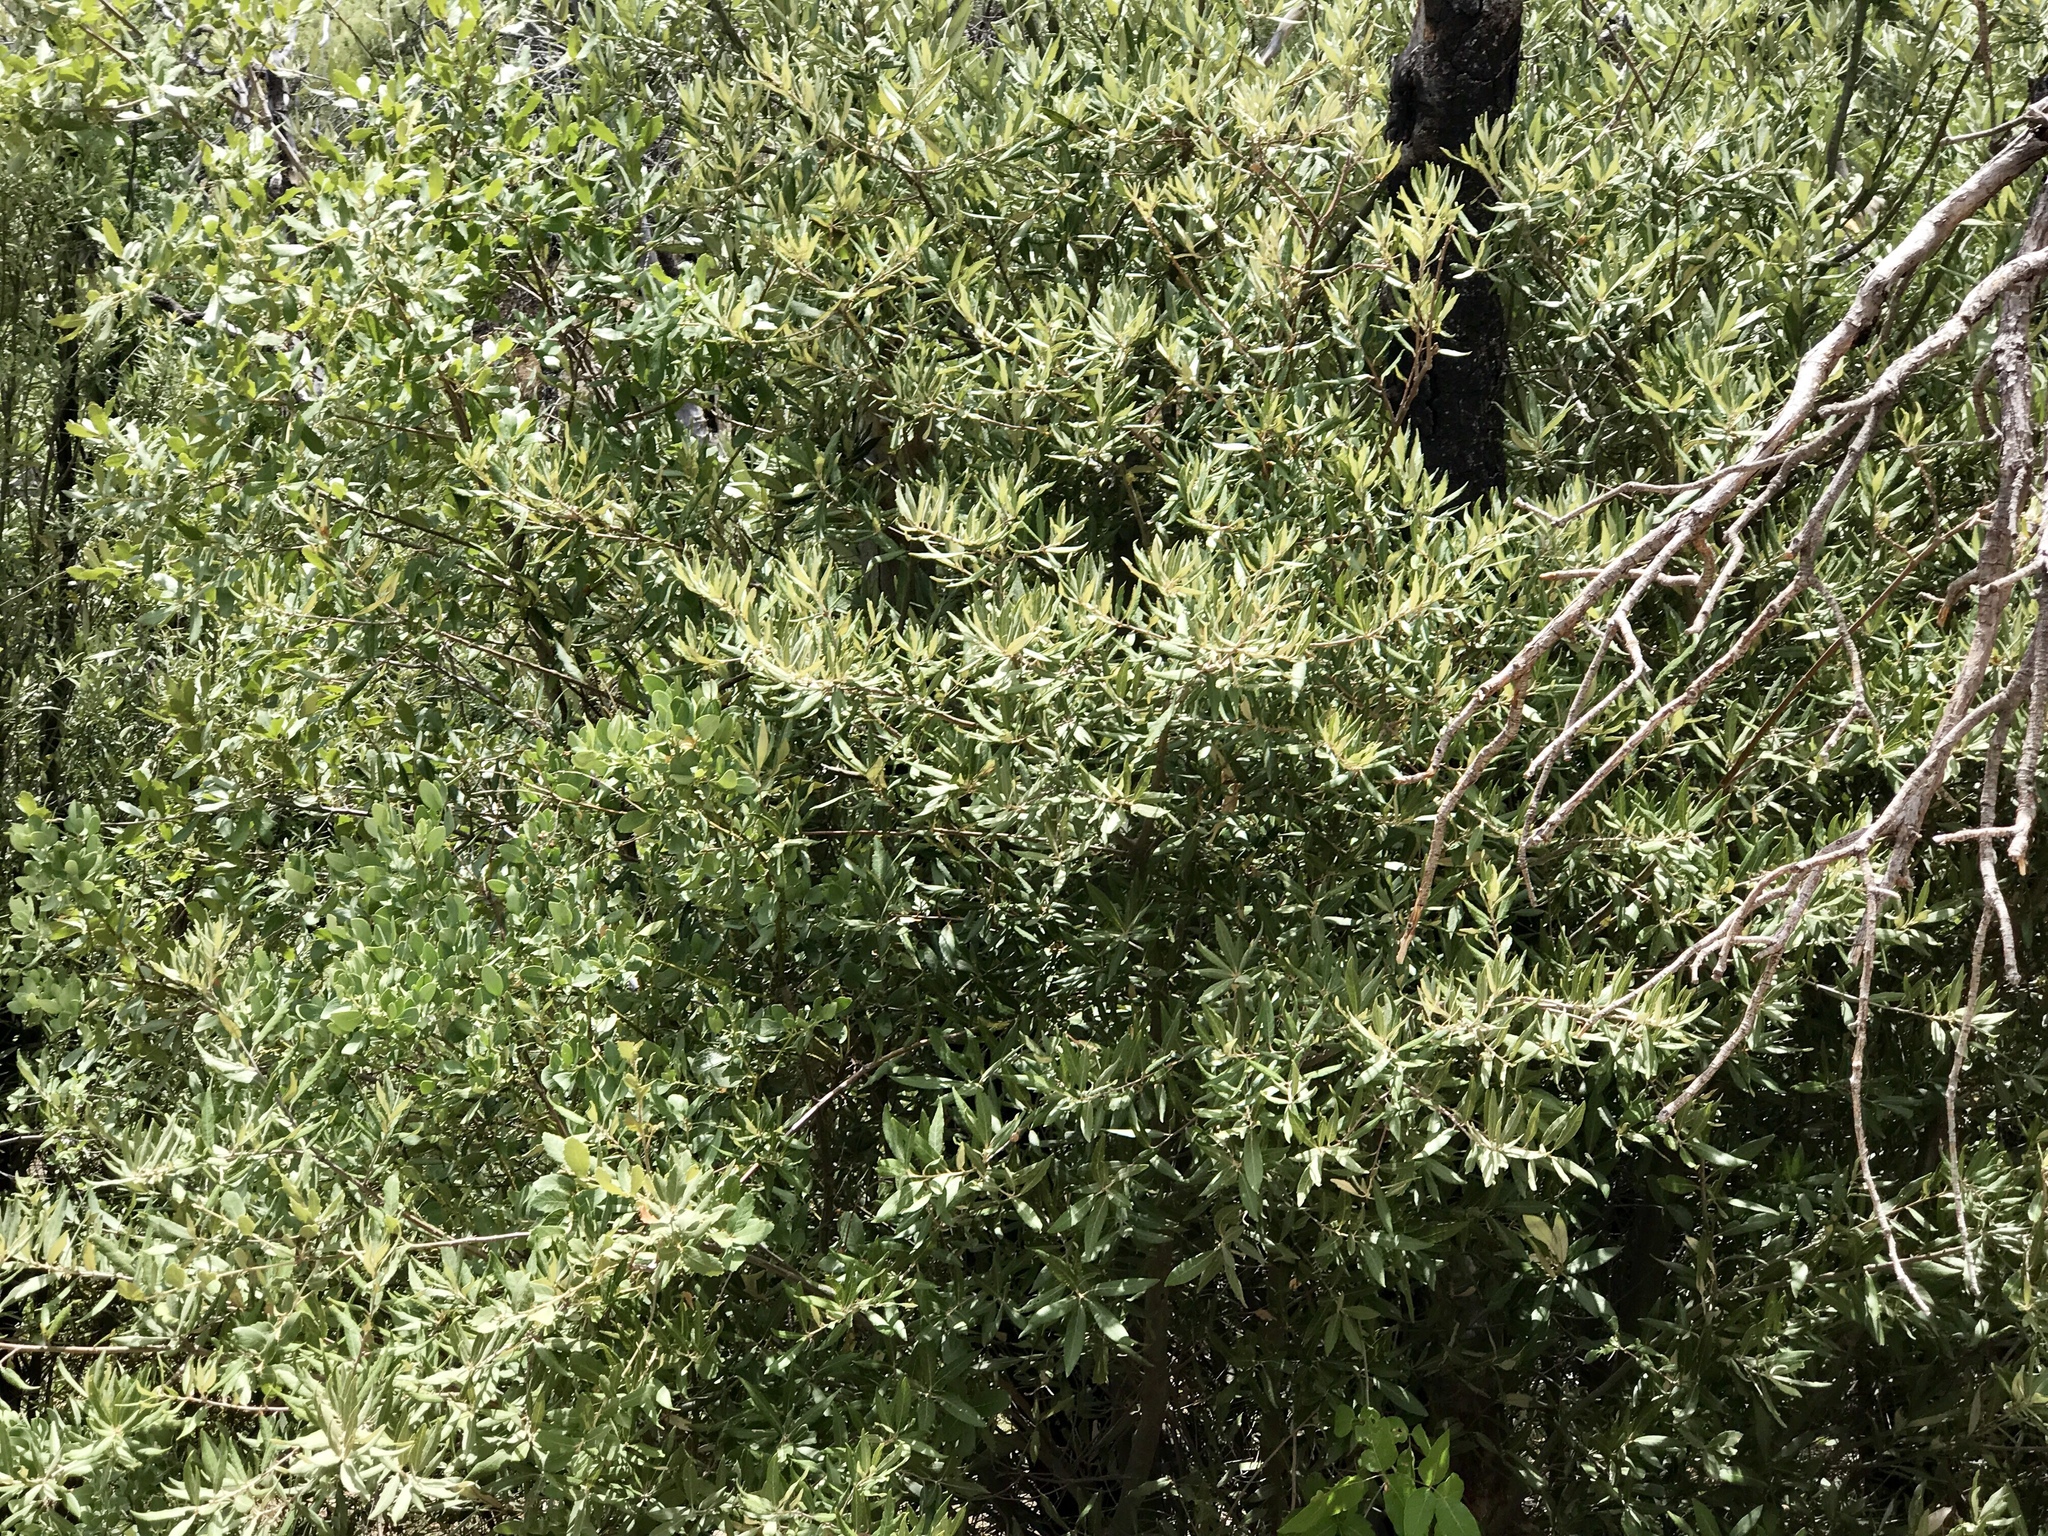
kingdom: Plantae
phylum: Tracheophyta
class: Magnoliopsida
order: Fagales
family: Fagaceae
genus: Quercus
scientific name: Quercus hypoleucoides
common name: Silverleaf oak
